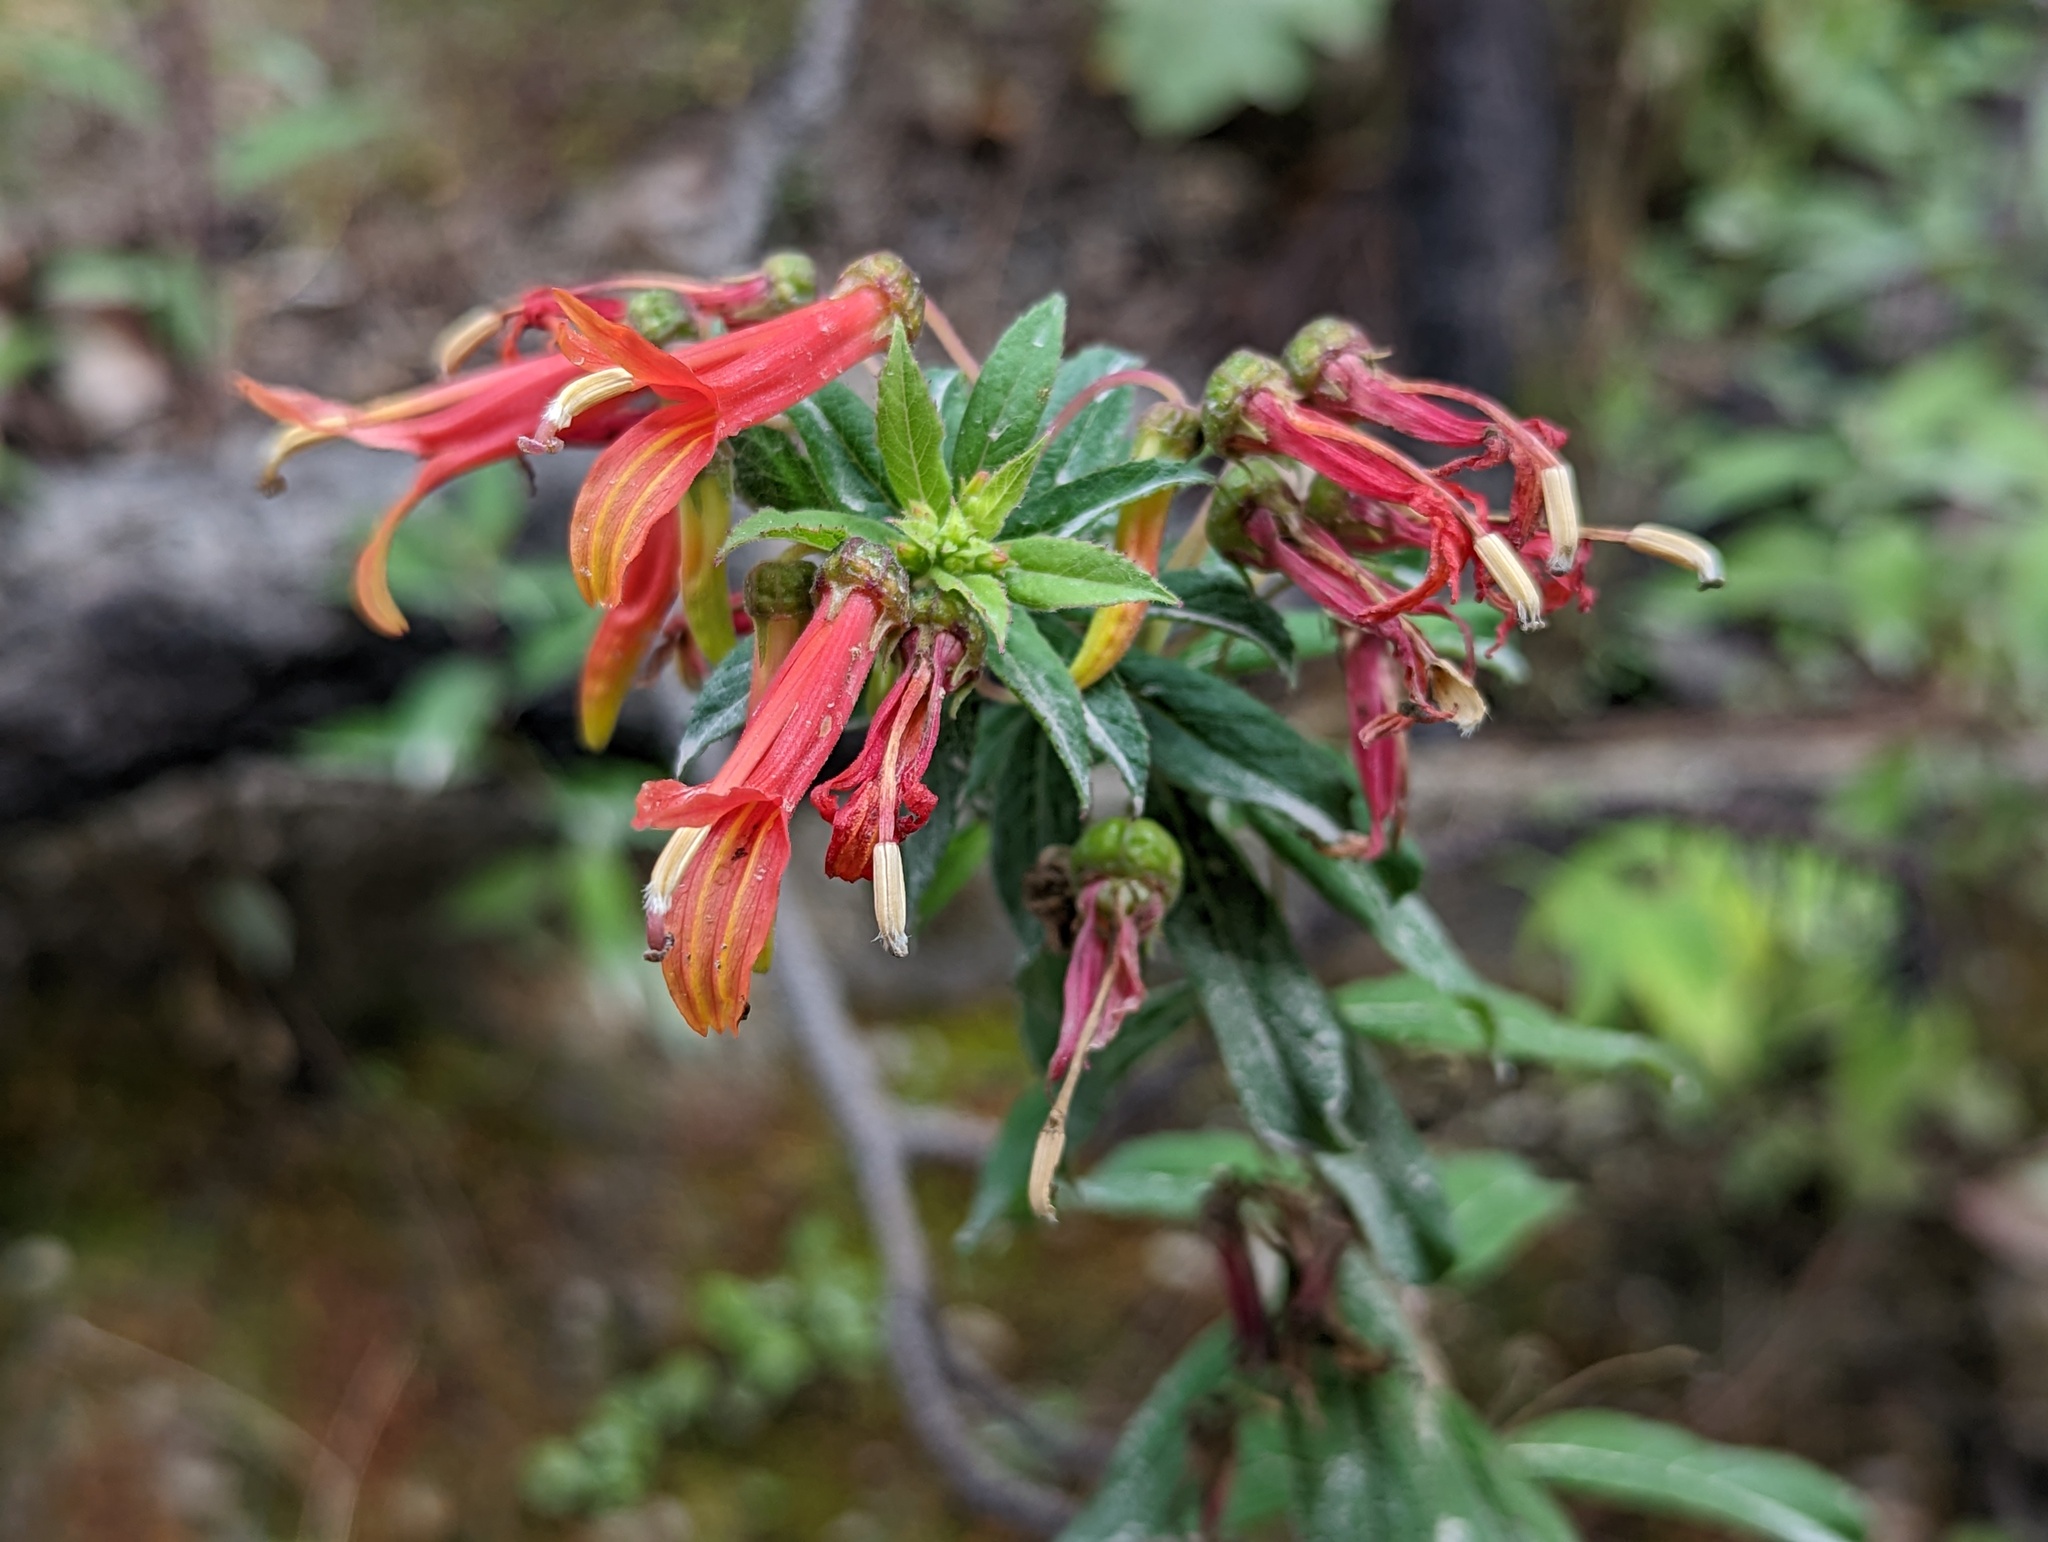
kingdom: Plantae
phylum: Tracheophyta
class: Magnoliopsida
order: Asterales
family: Campanulaceae
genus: Lobelia
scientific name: Lobelia laxiflora
